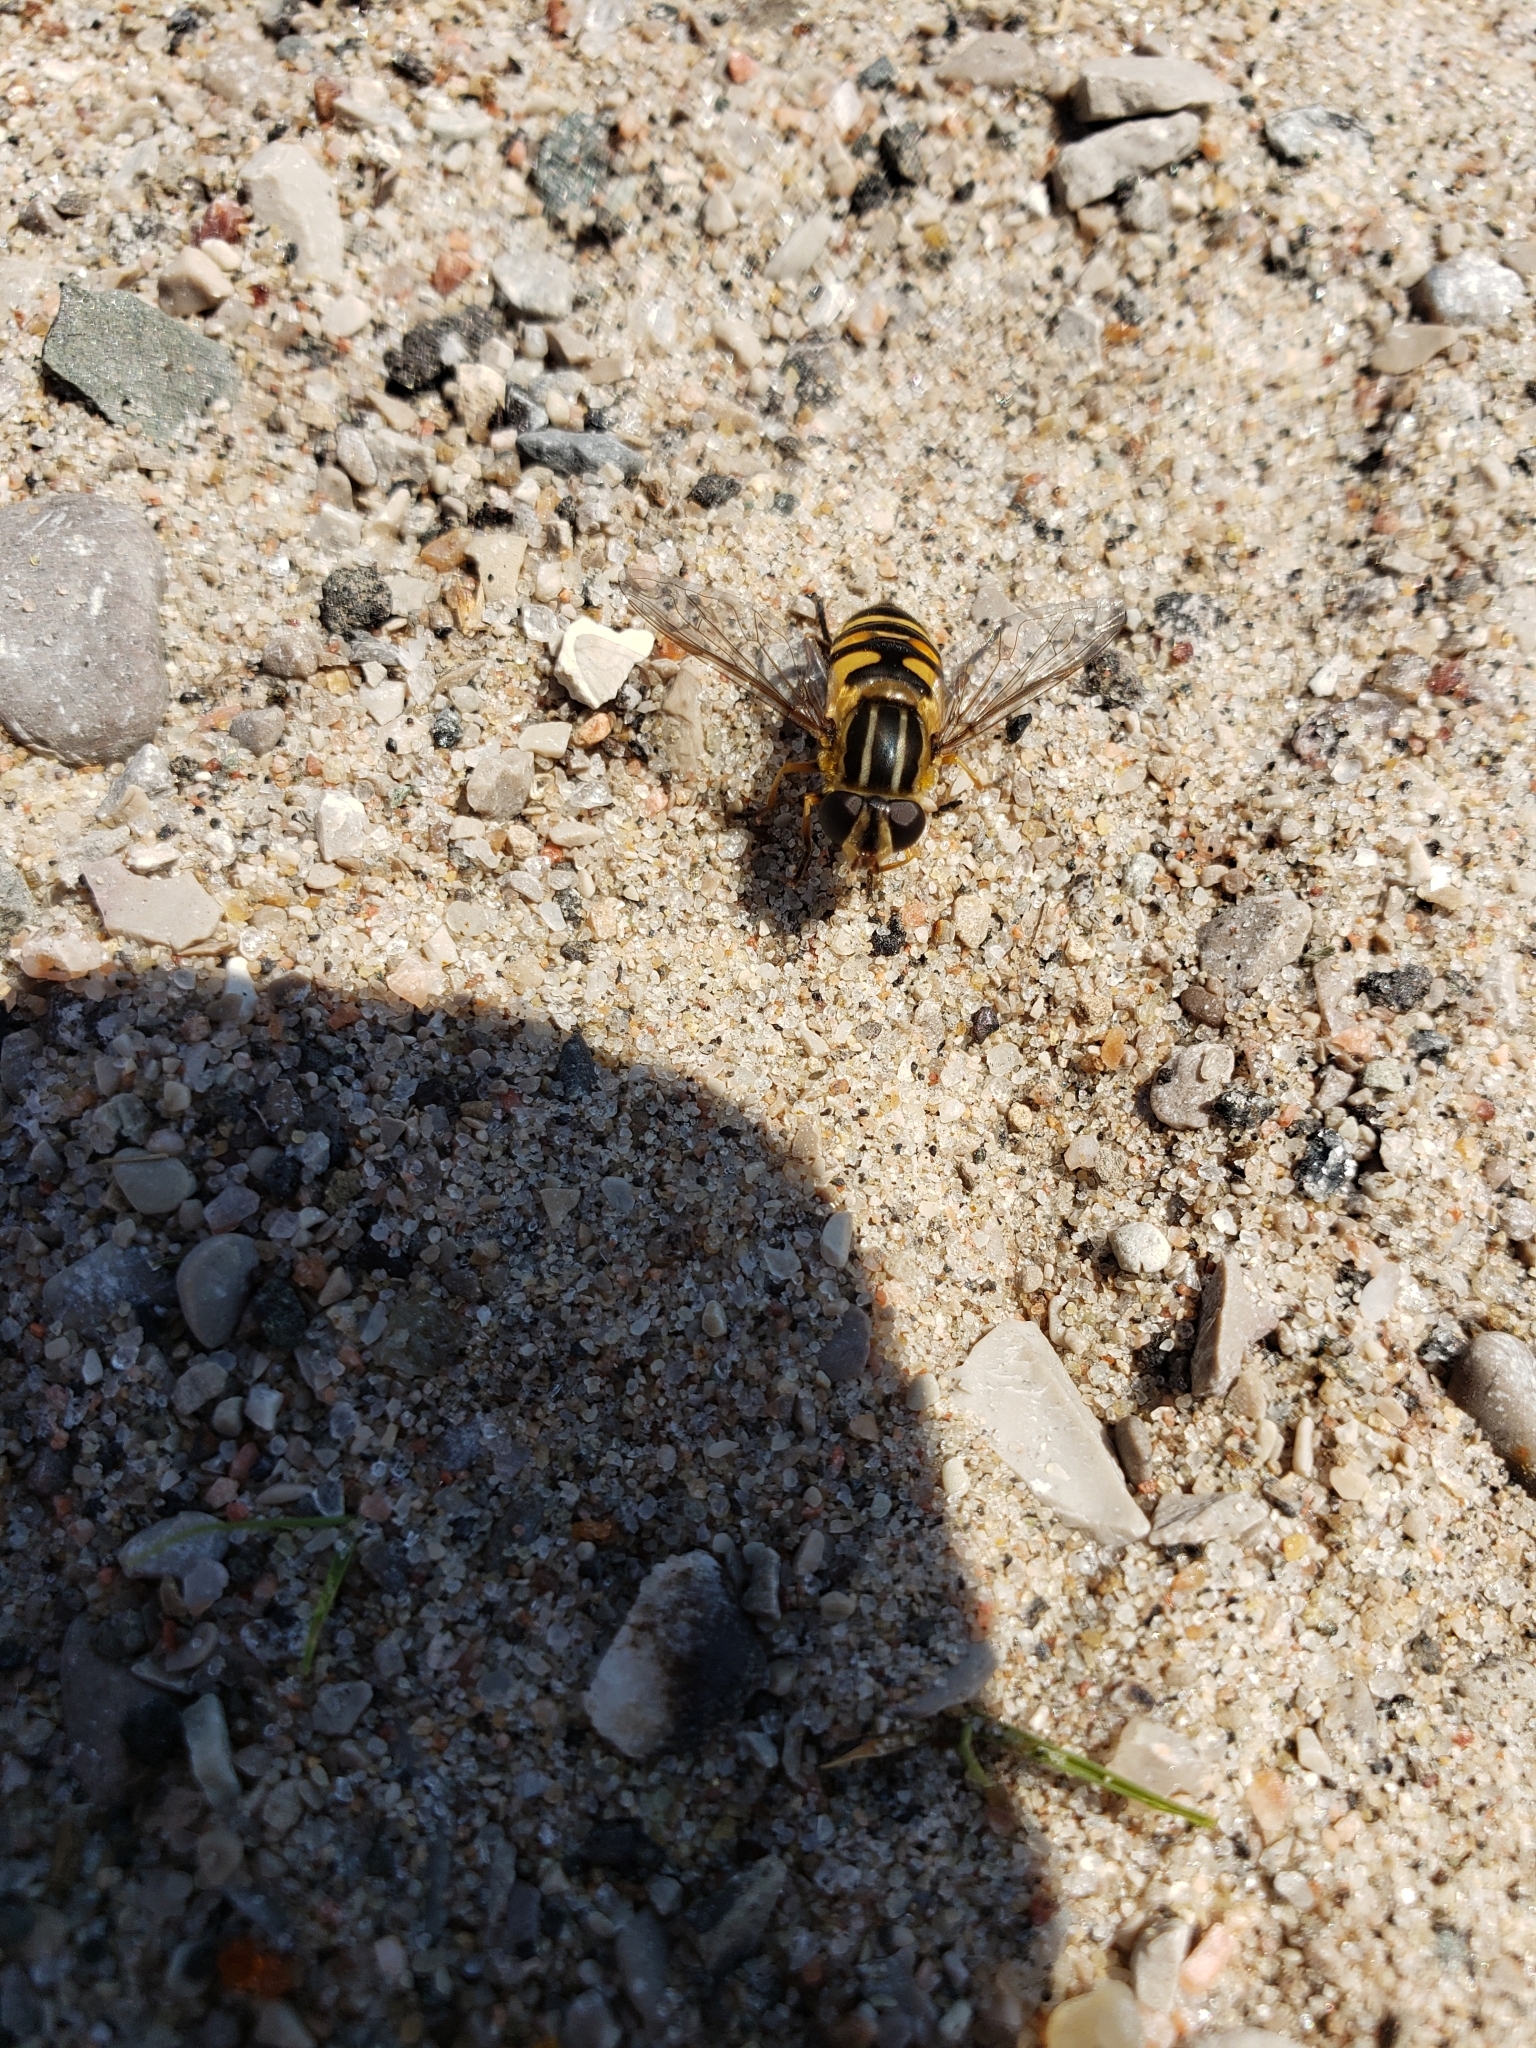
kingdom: Animalia
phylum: Arthropoda
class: Insecta
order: Diptera
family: Syrphidae
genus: Helophilus
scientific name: Helophilus fasciatus
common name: Narrow-headed marsh fly
